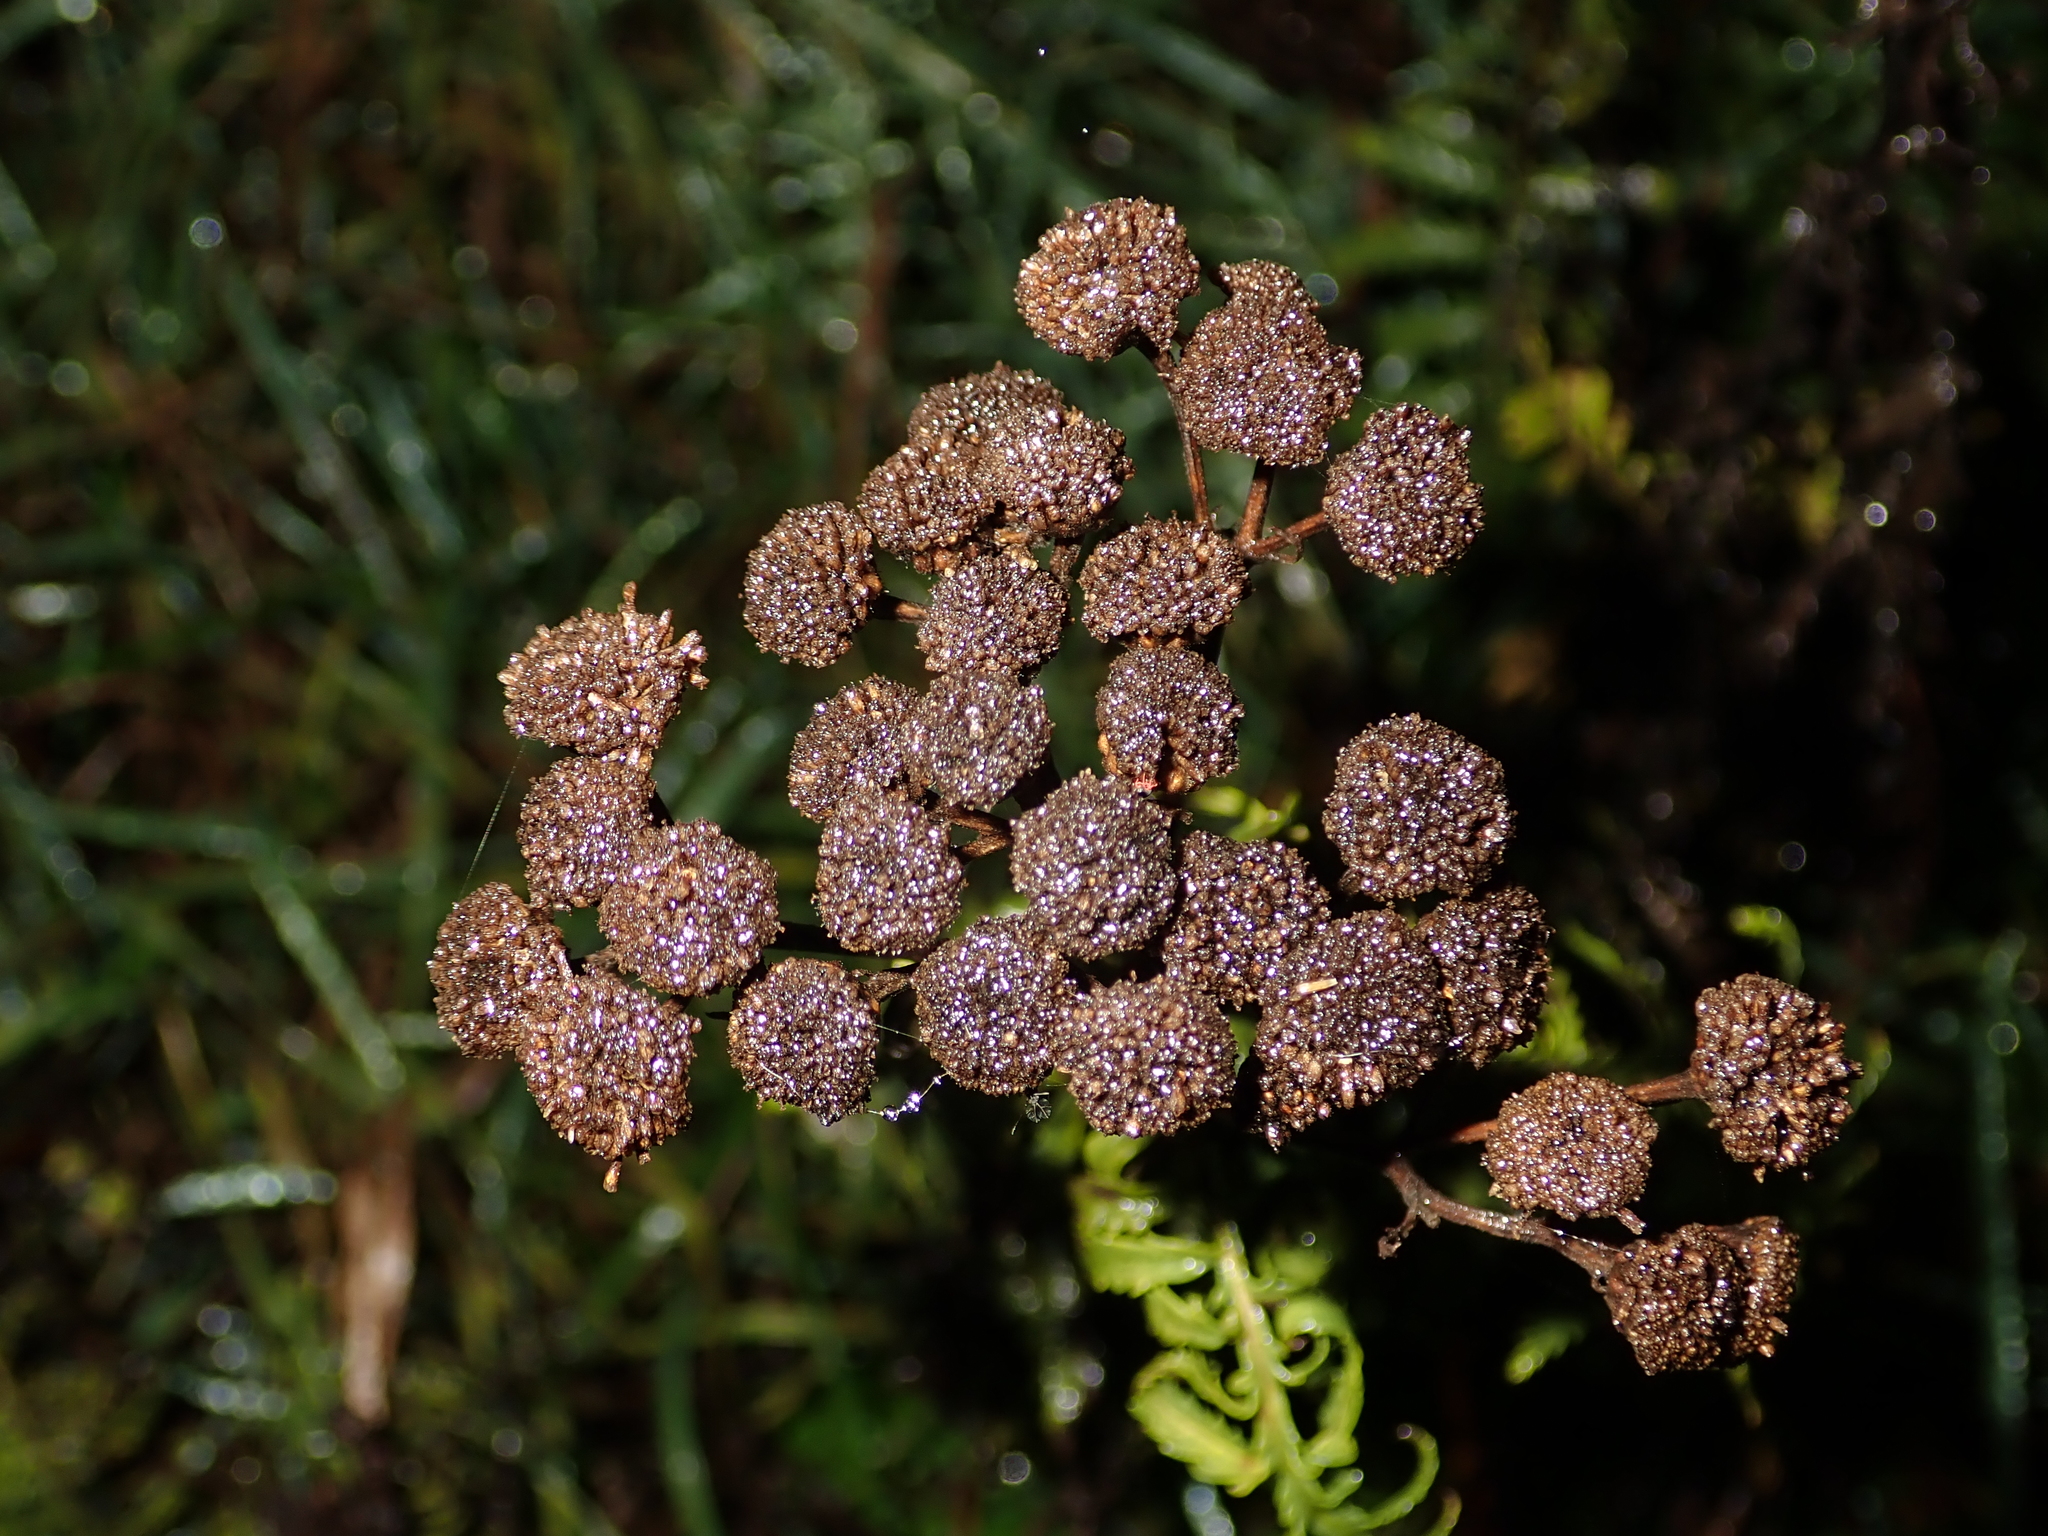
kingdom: Plantae
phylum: Tracheophyta
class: Magnoliopsida
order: Asterales
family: Asteraceae
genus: Tanacetum
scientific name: Tanacetum vulgare
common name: Common tansy
